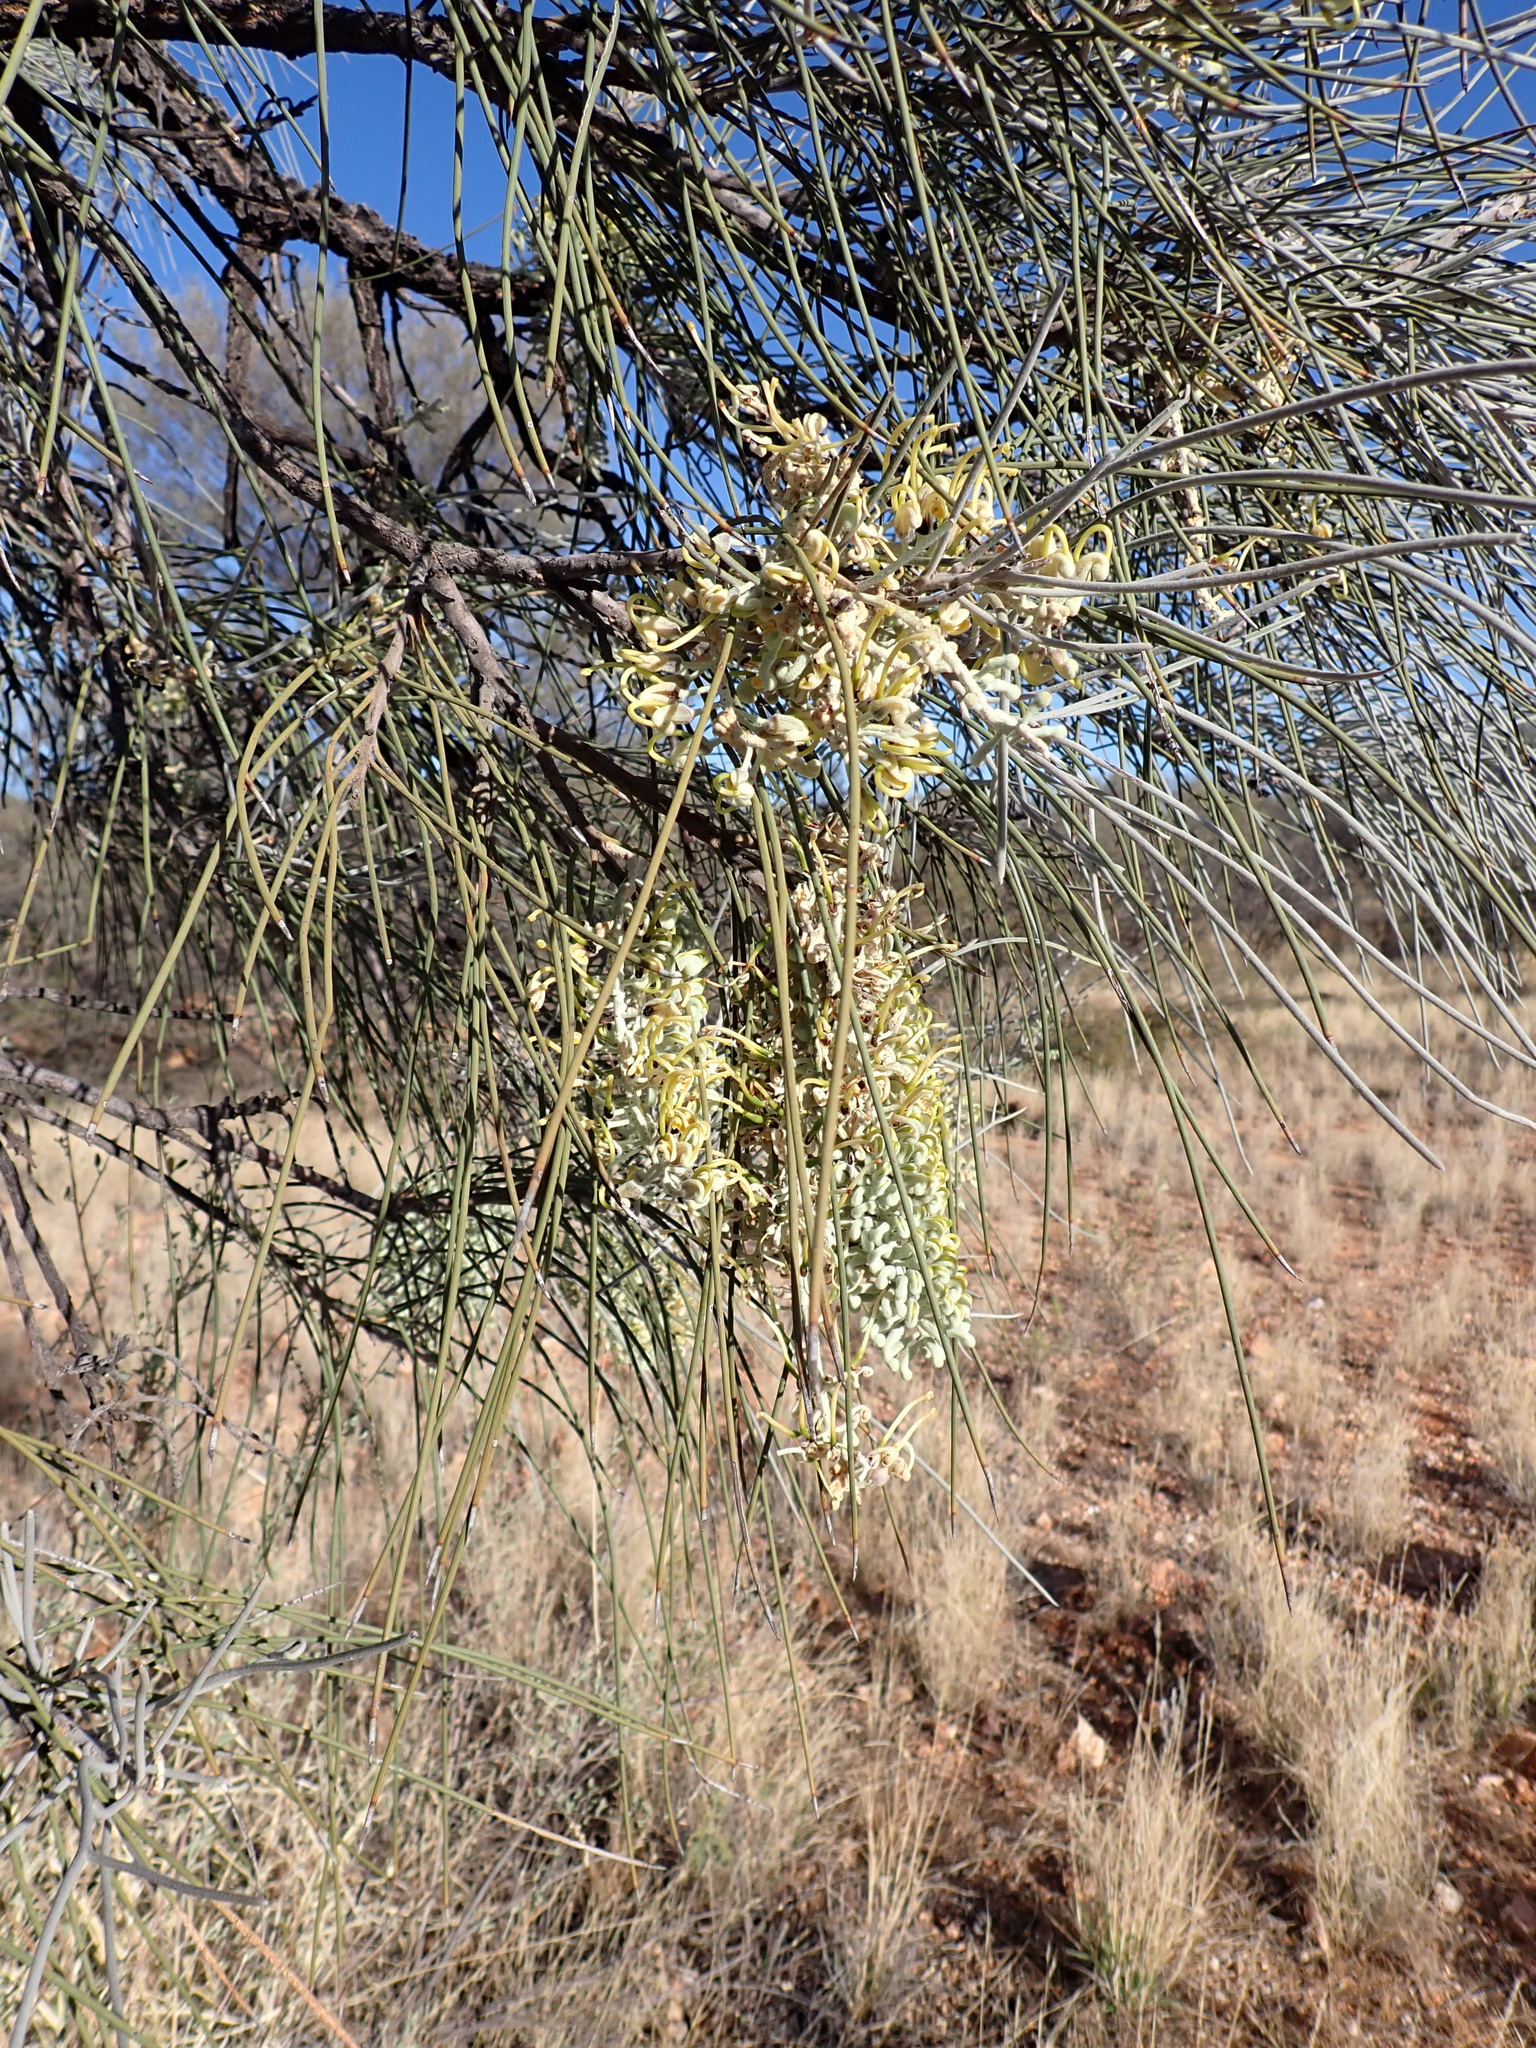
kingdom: Plantae
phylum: Tracheophyta
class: Magnoliopsida
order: Proteales
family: Proteaceae
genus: Hakea
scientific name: Hakea lorea
